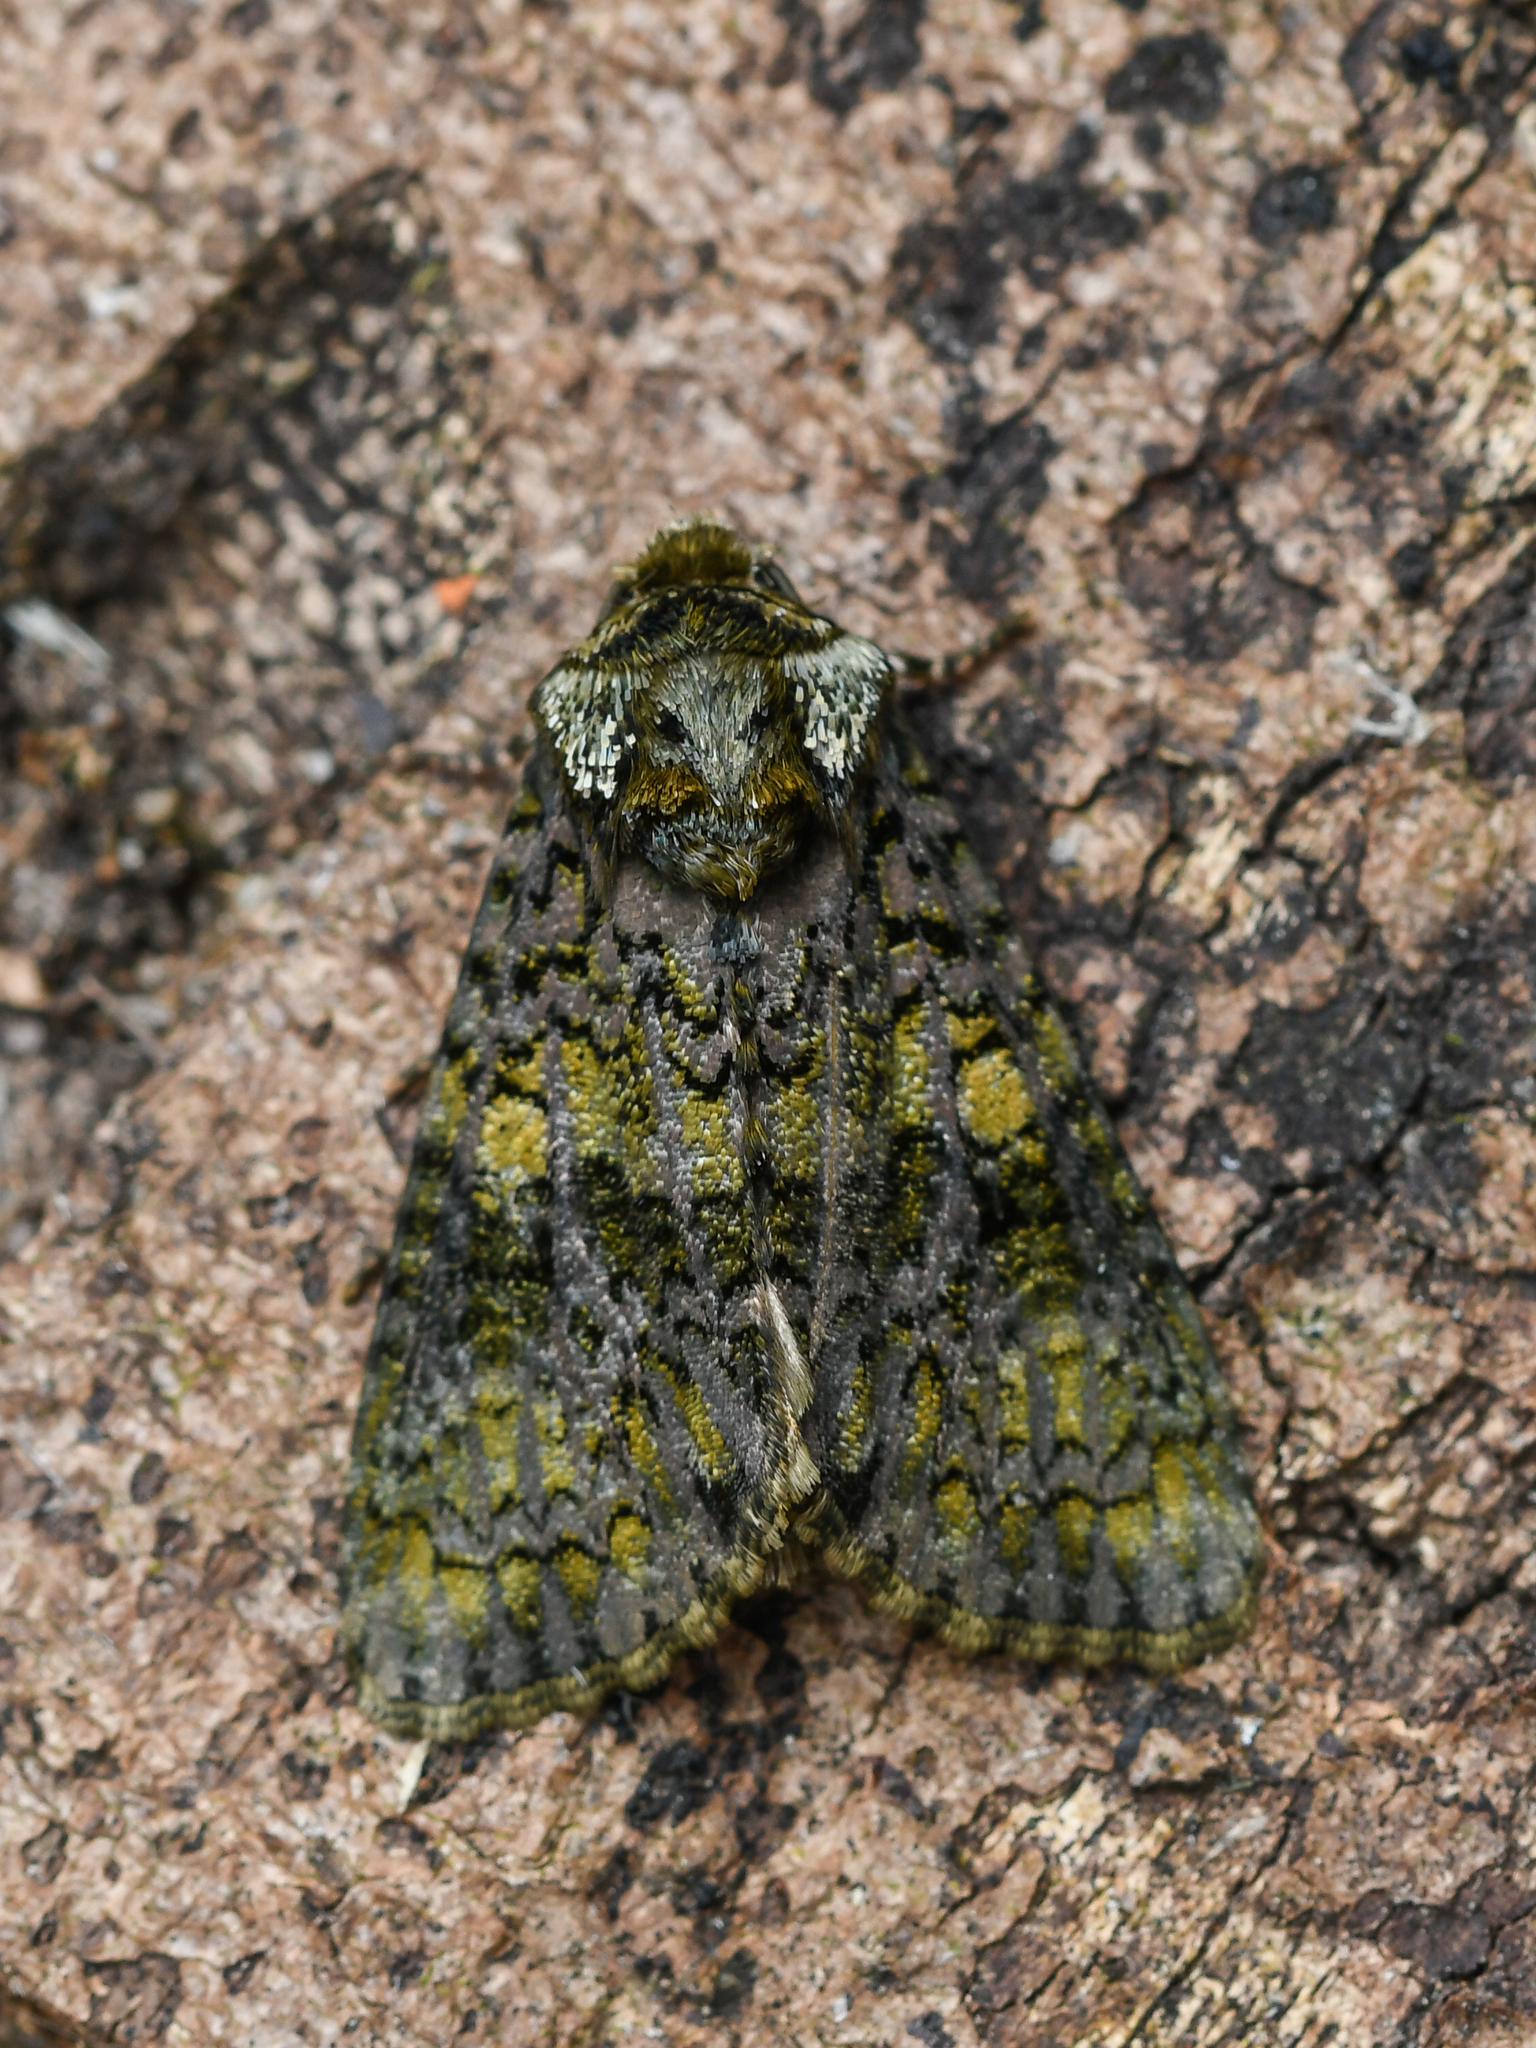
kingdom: Animalia
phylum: Arthropoda
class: Insecta
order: Lepidoptera
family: Noctuidae
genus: Craniophora
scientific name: Craniophora ligustri
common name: Coronet
